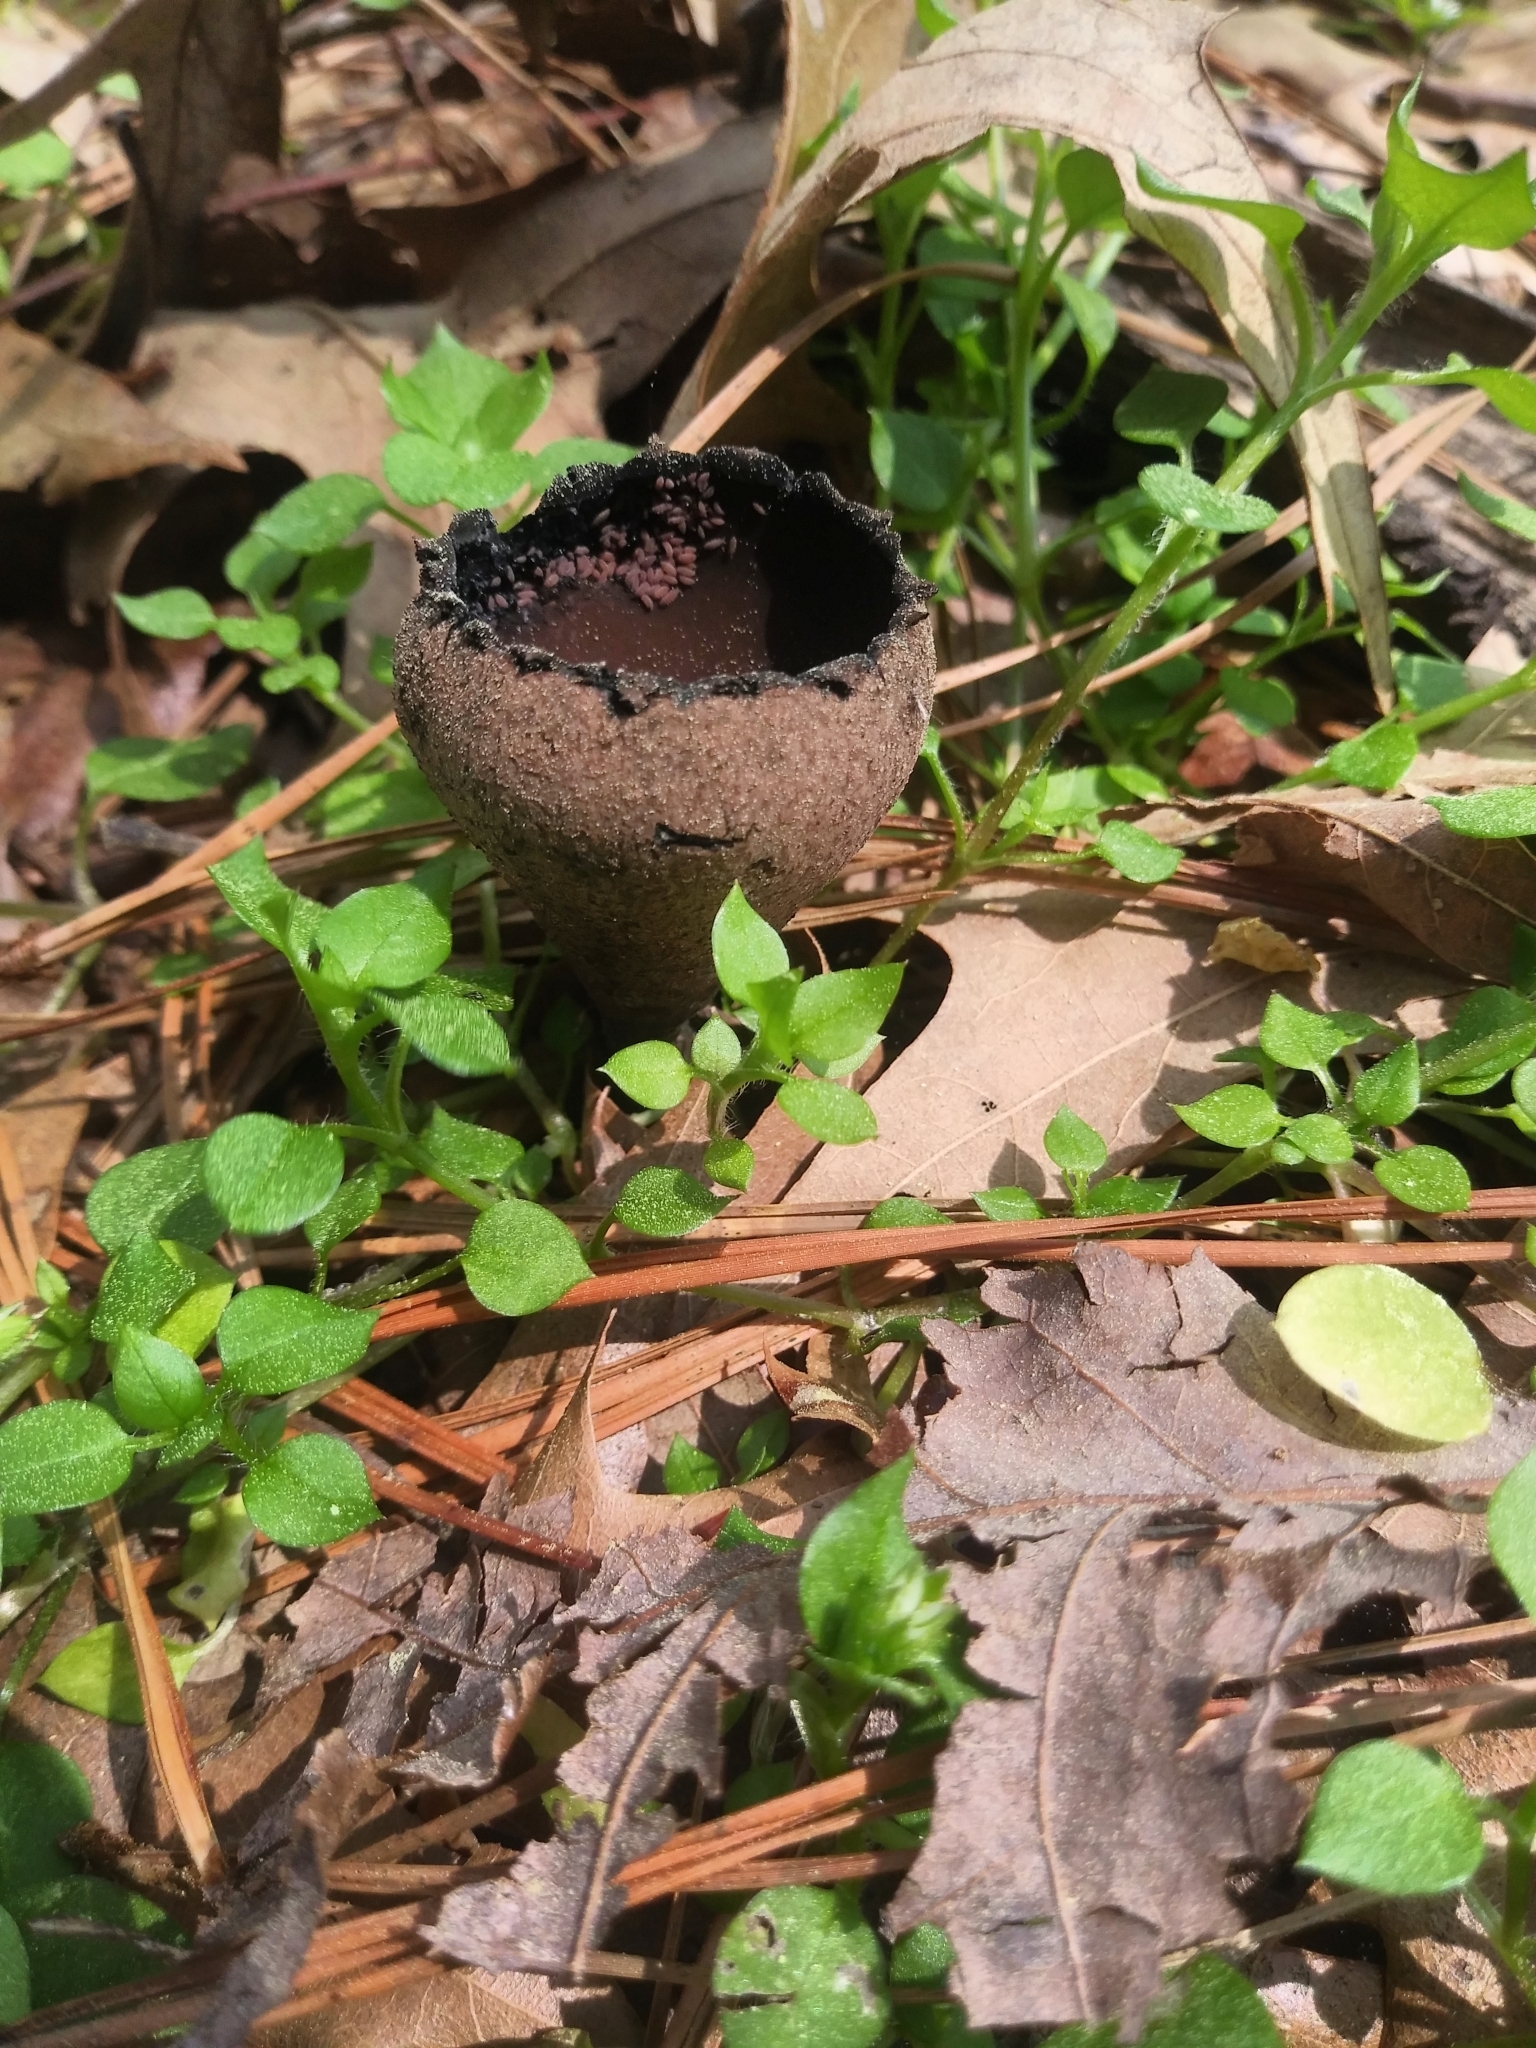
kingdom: Fungi
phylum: Ascomycota
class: Pezizomycetes
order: Pezizales
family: Sarcosomataceae
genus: Urnula
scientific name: Urnula craterium
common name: Devil's urn
